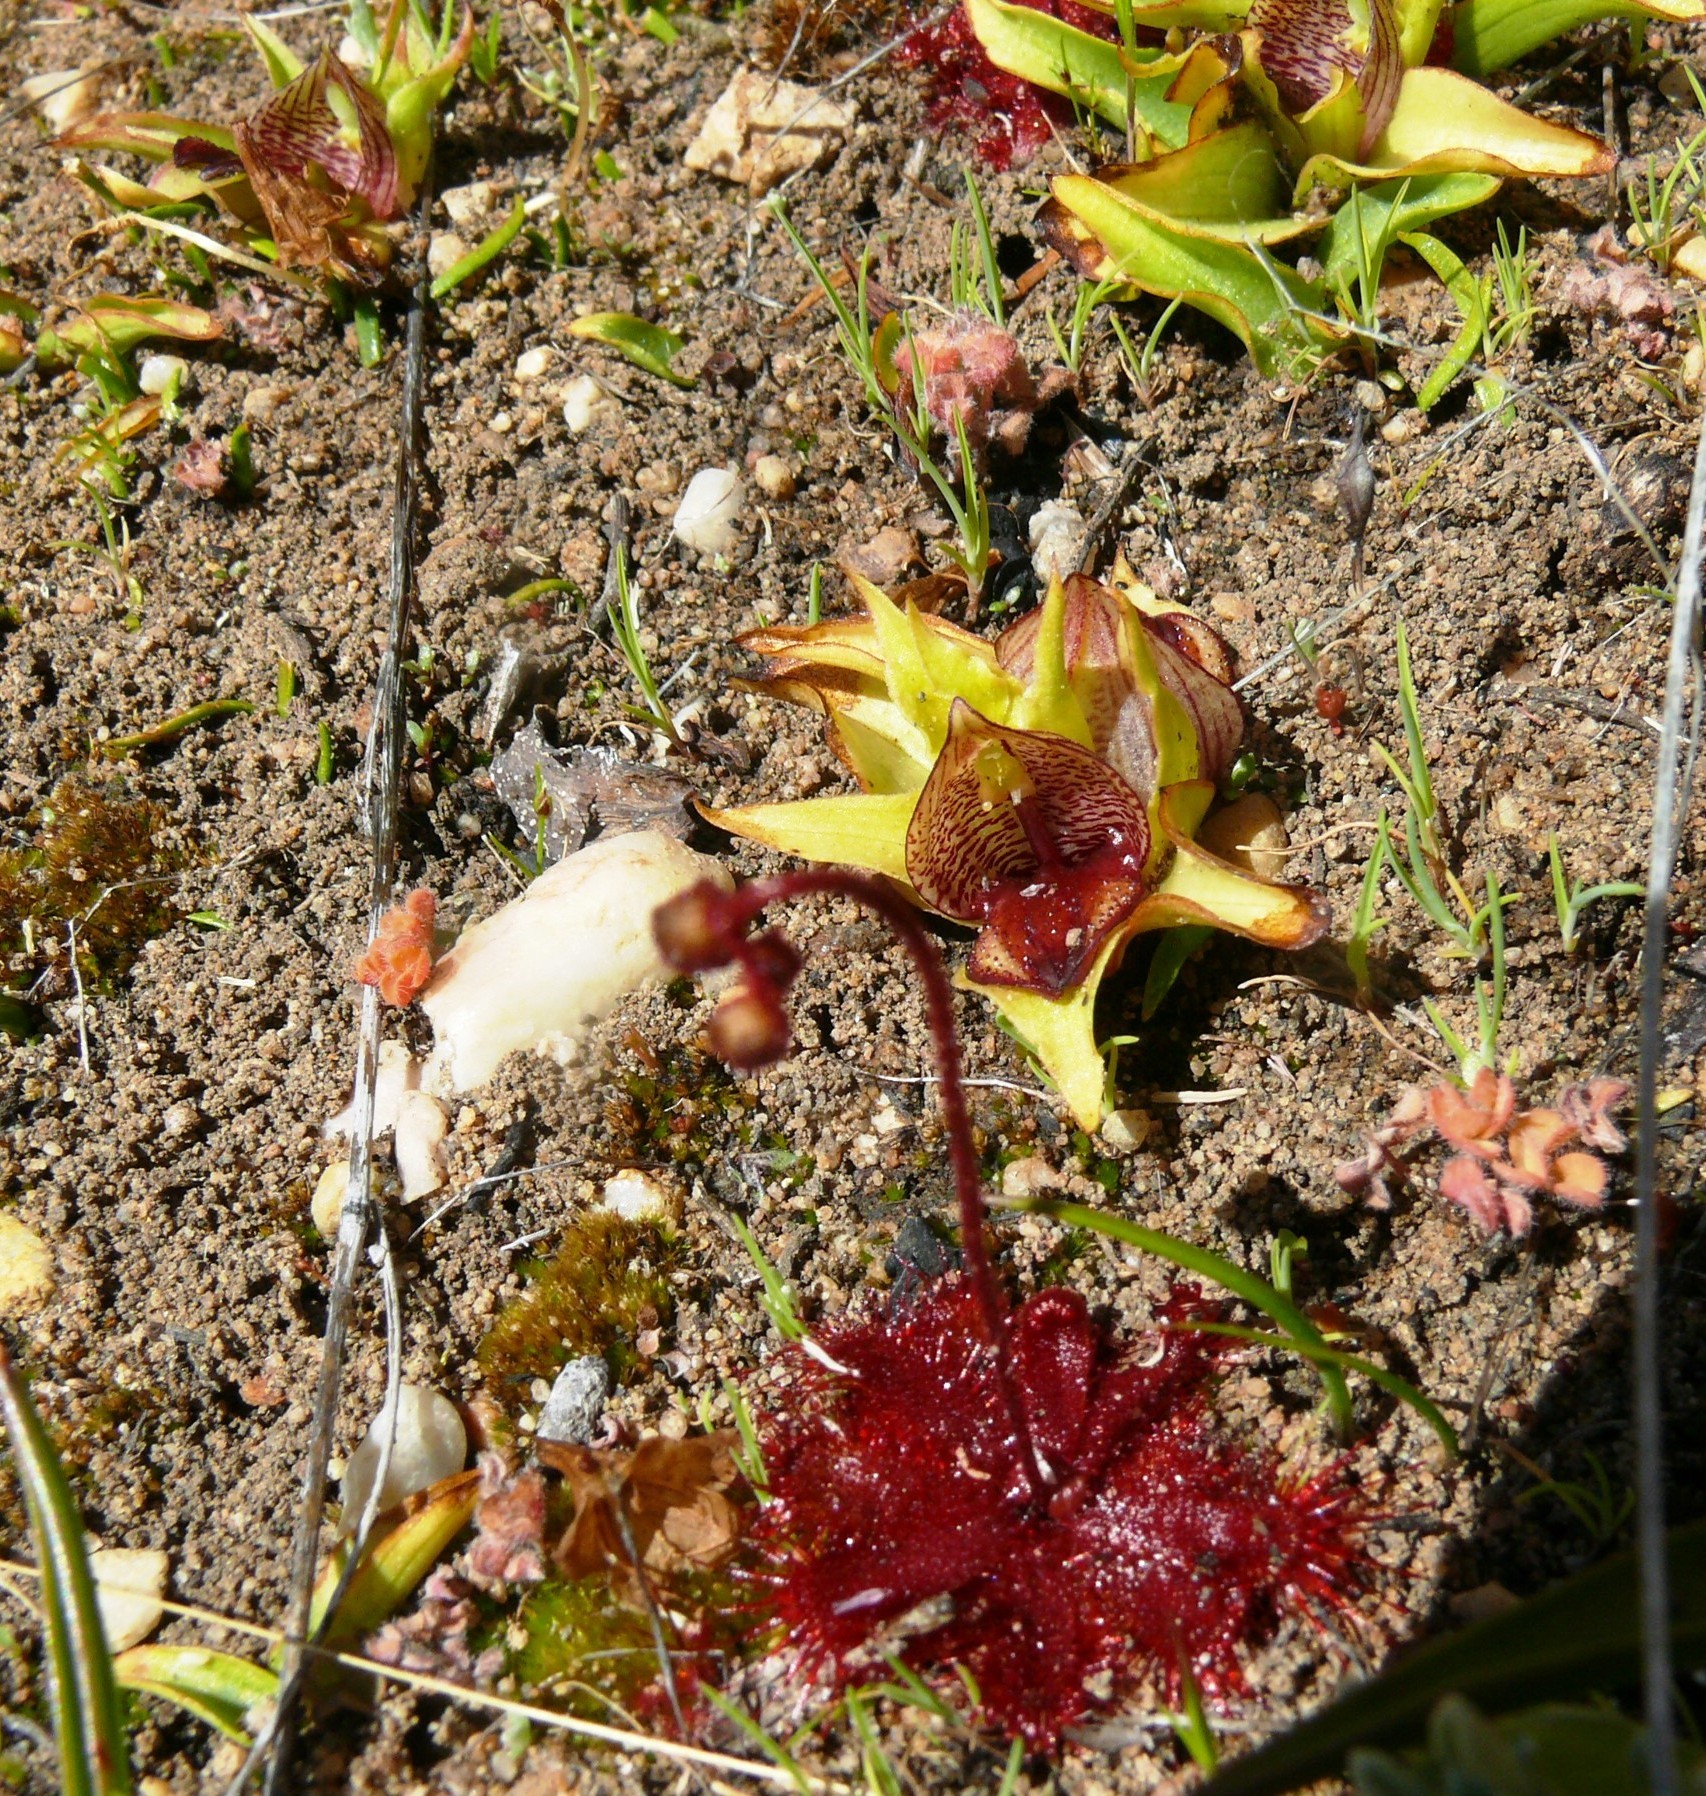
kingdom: Plantae
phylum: Tracheophyta
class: Magnoliopsida
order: Caryophyllales
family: Droseraceae
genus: Drosera
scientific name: Drosera trinervia
